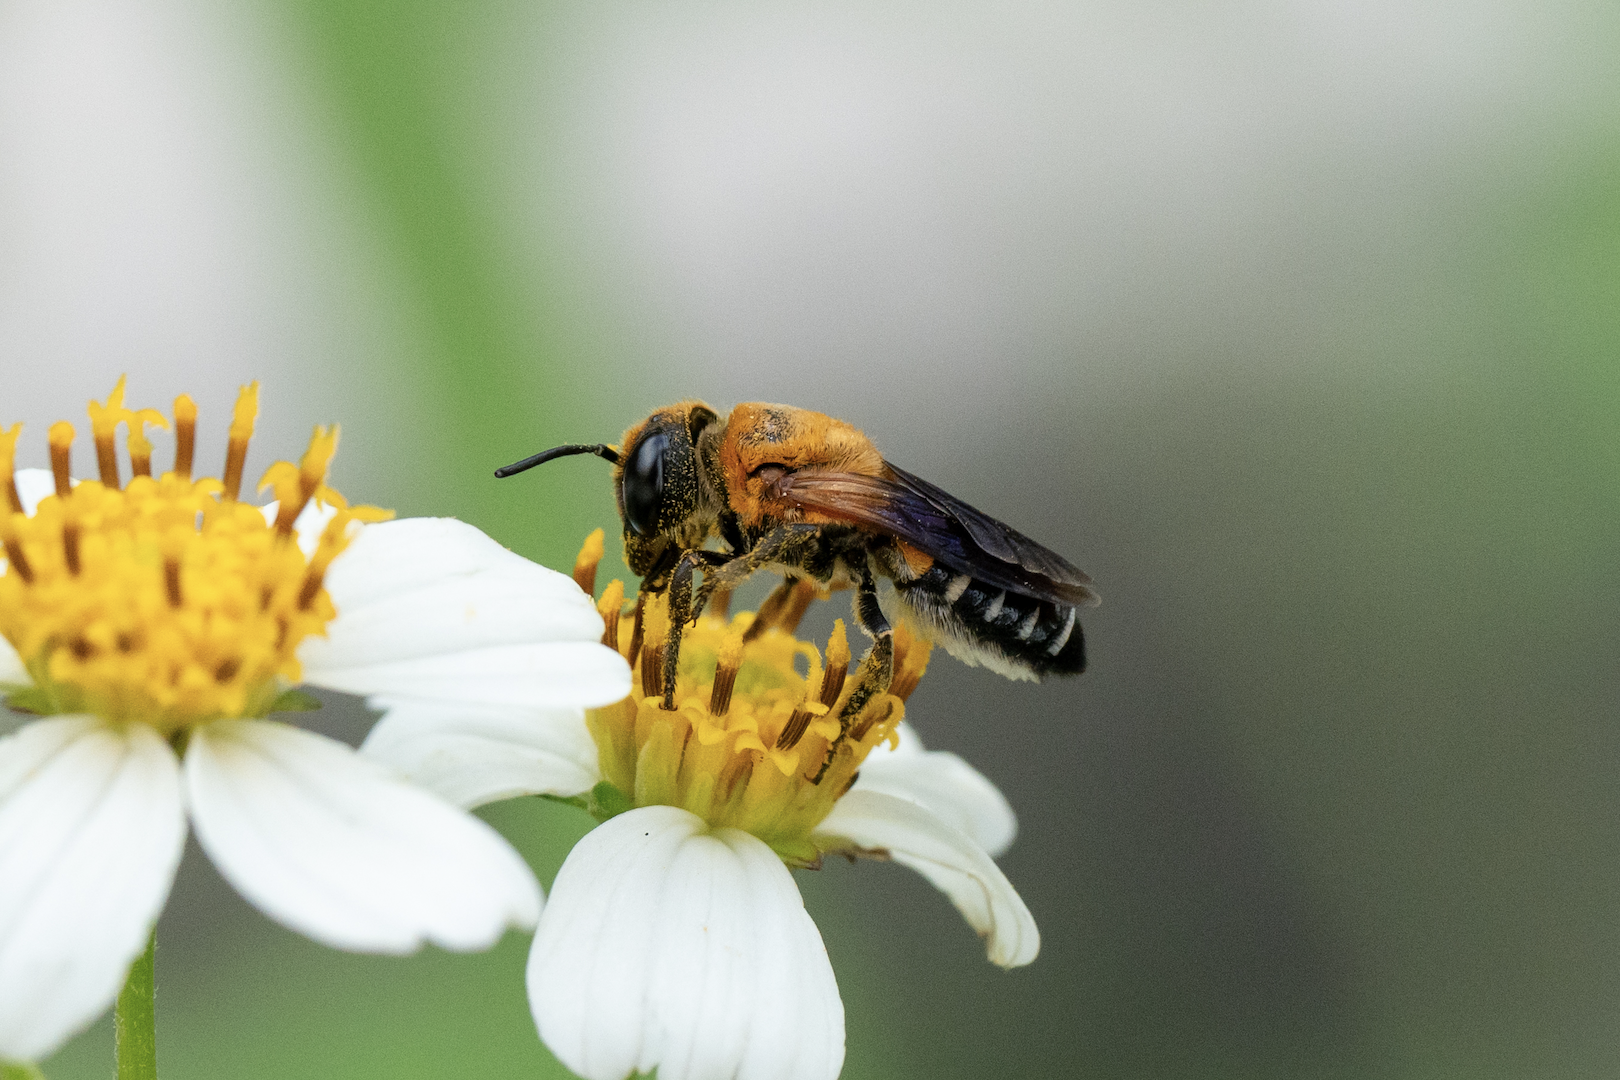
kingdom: Animalia
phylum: Arthropoda
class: Insecta
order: Hymenoptera
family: Megachilidae
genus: Megachile
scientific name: Megachile umbripennis
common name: Shadow-winged resin bee
